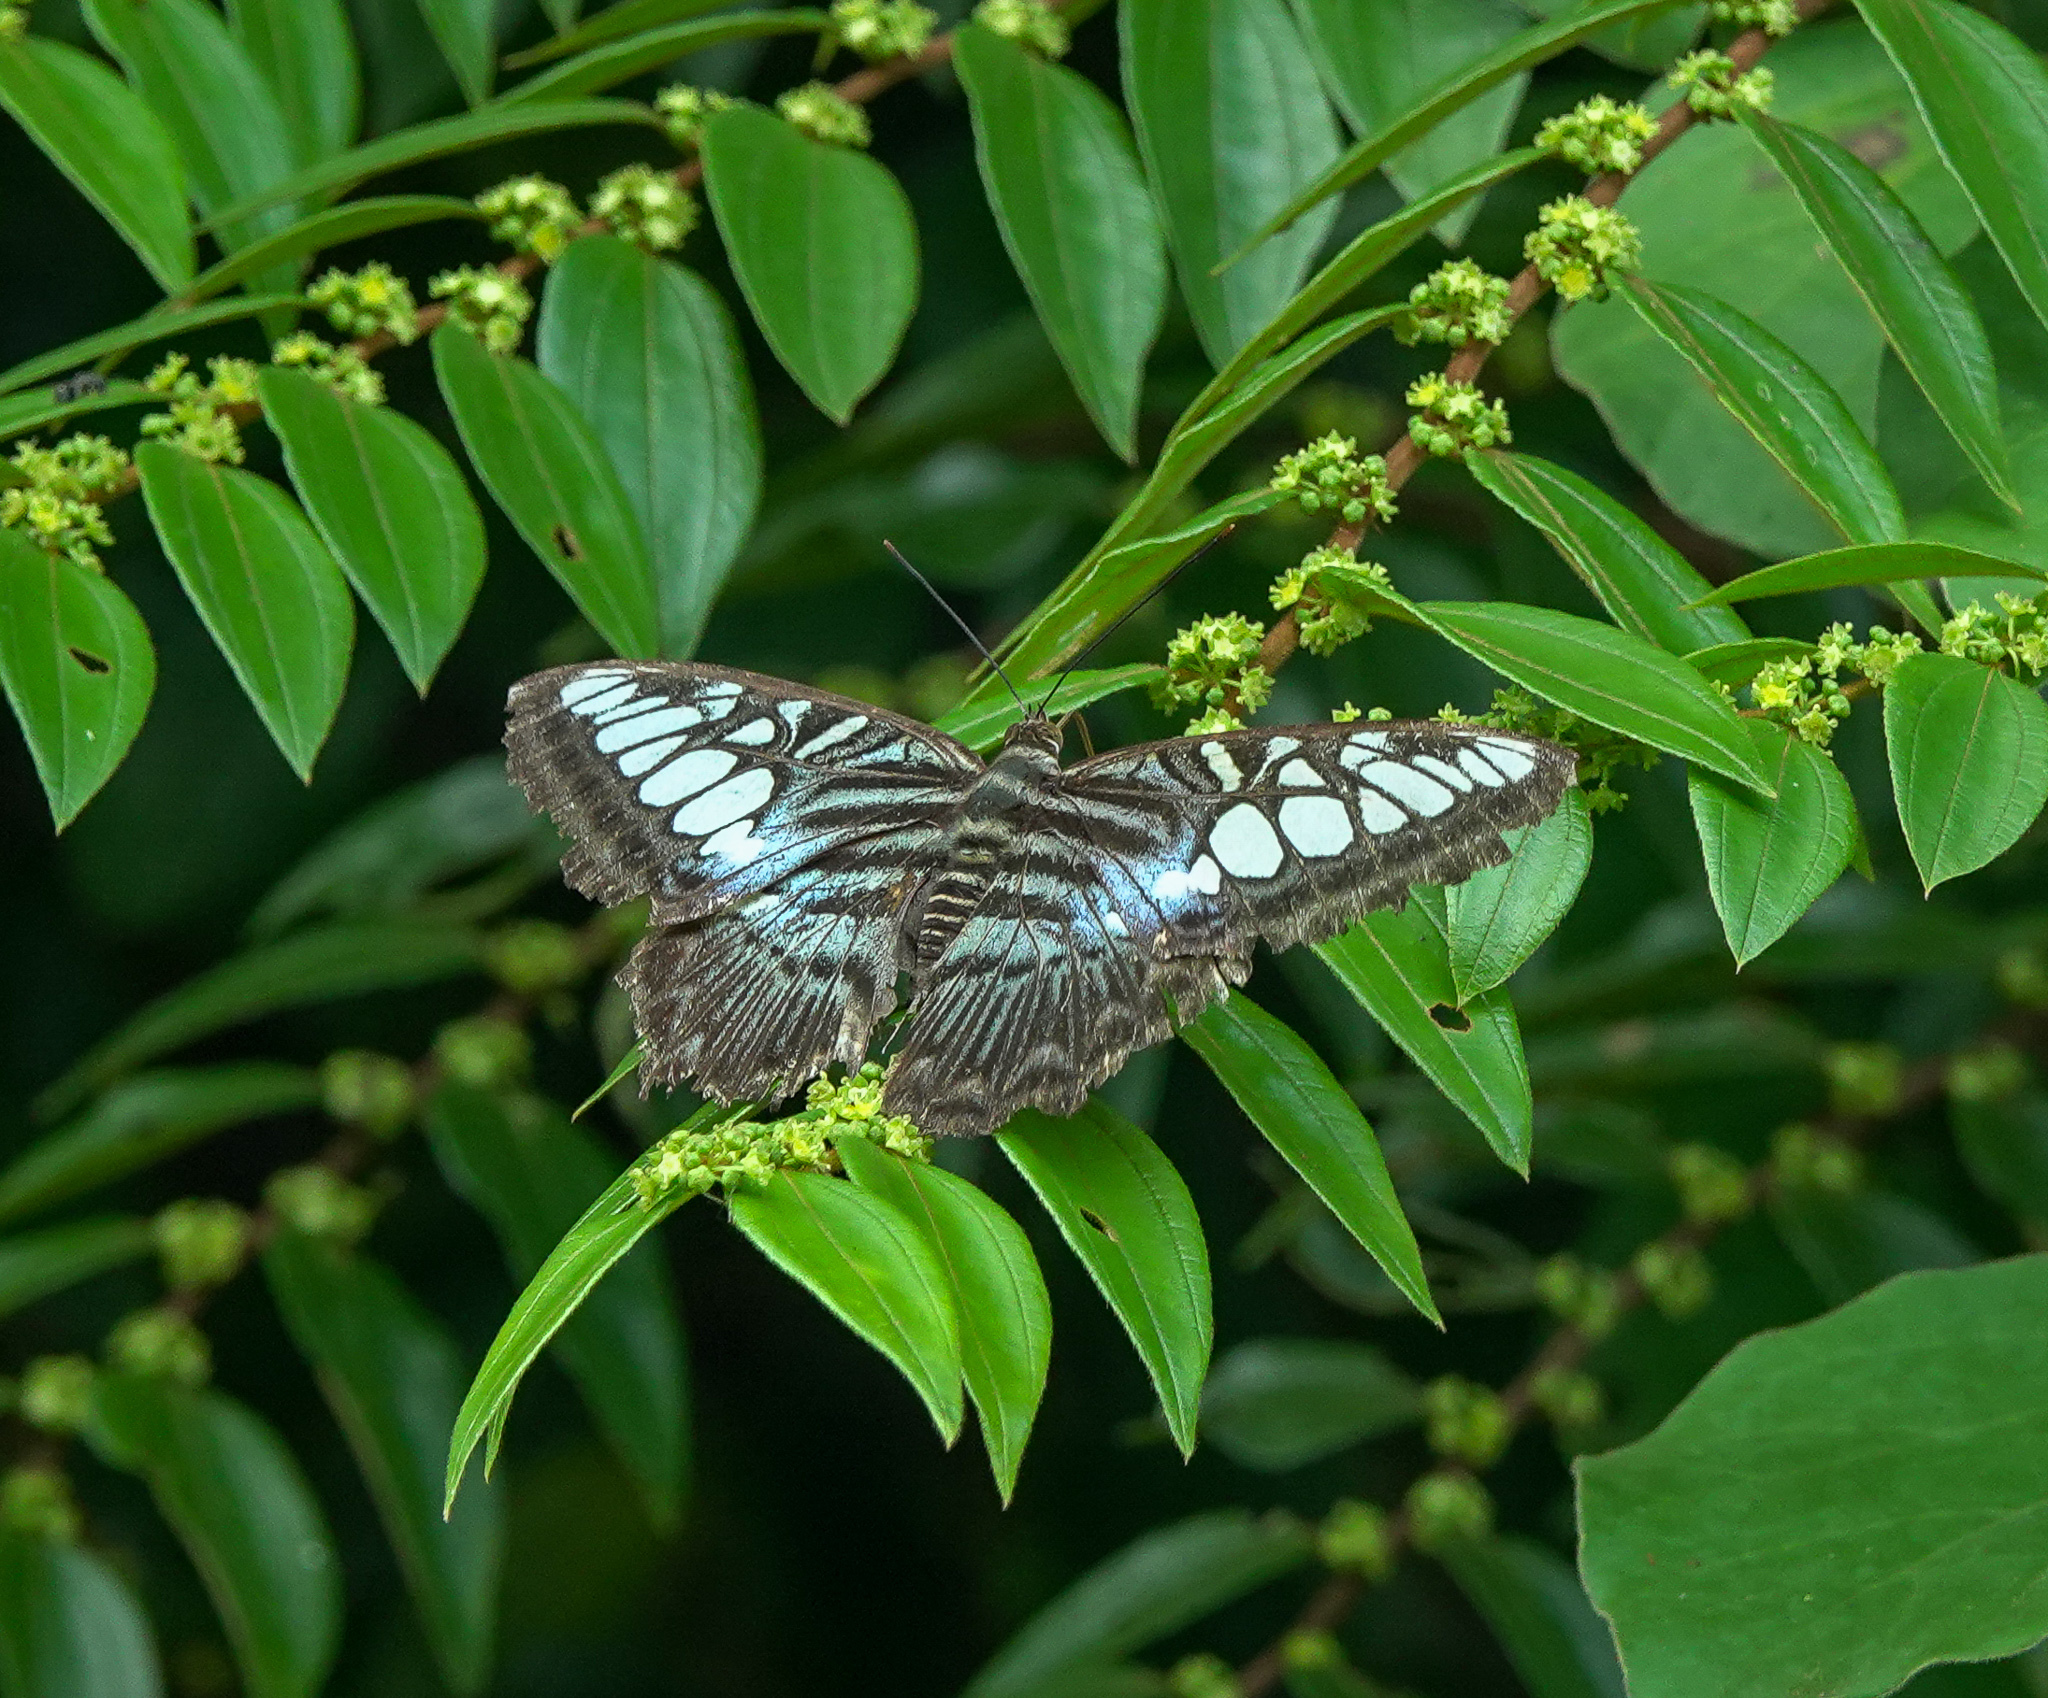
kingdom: Animalia
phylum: Arthropoda
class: Insecta
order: Lepidoptera
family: Nymphalidae
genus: Kallima
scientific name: Kallima sylvia
